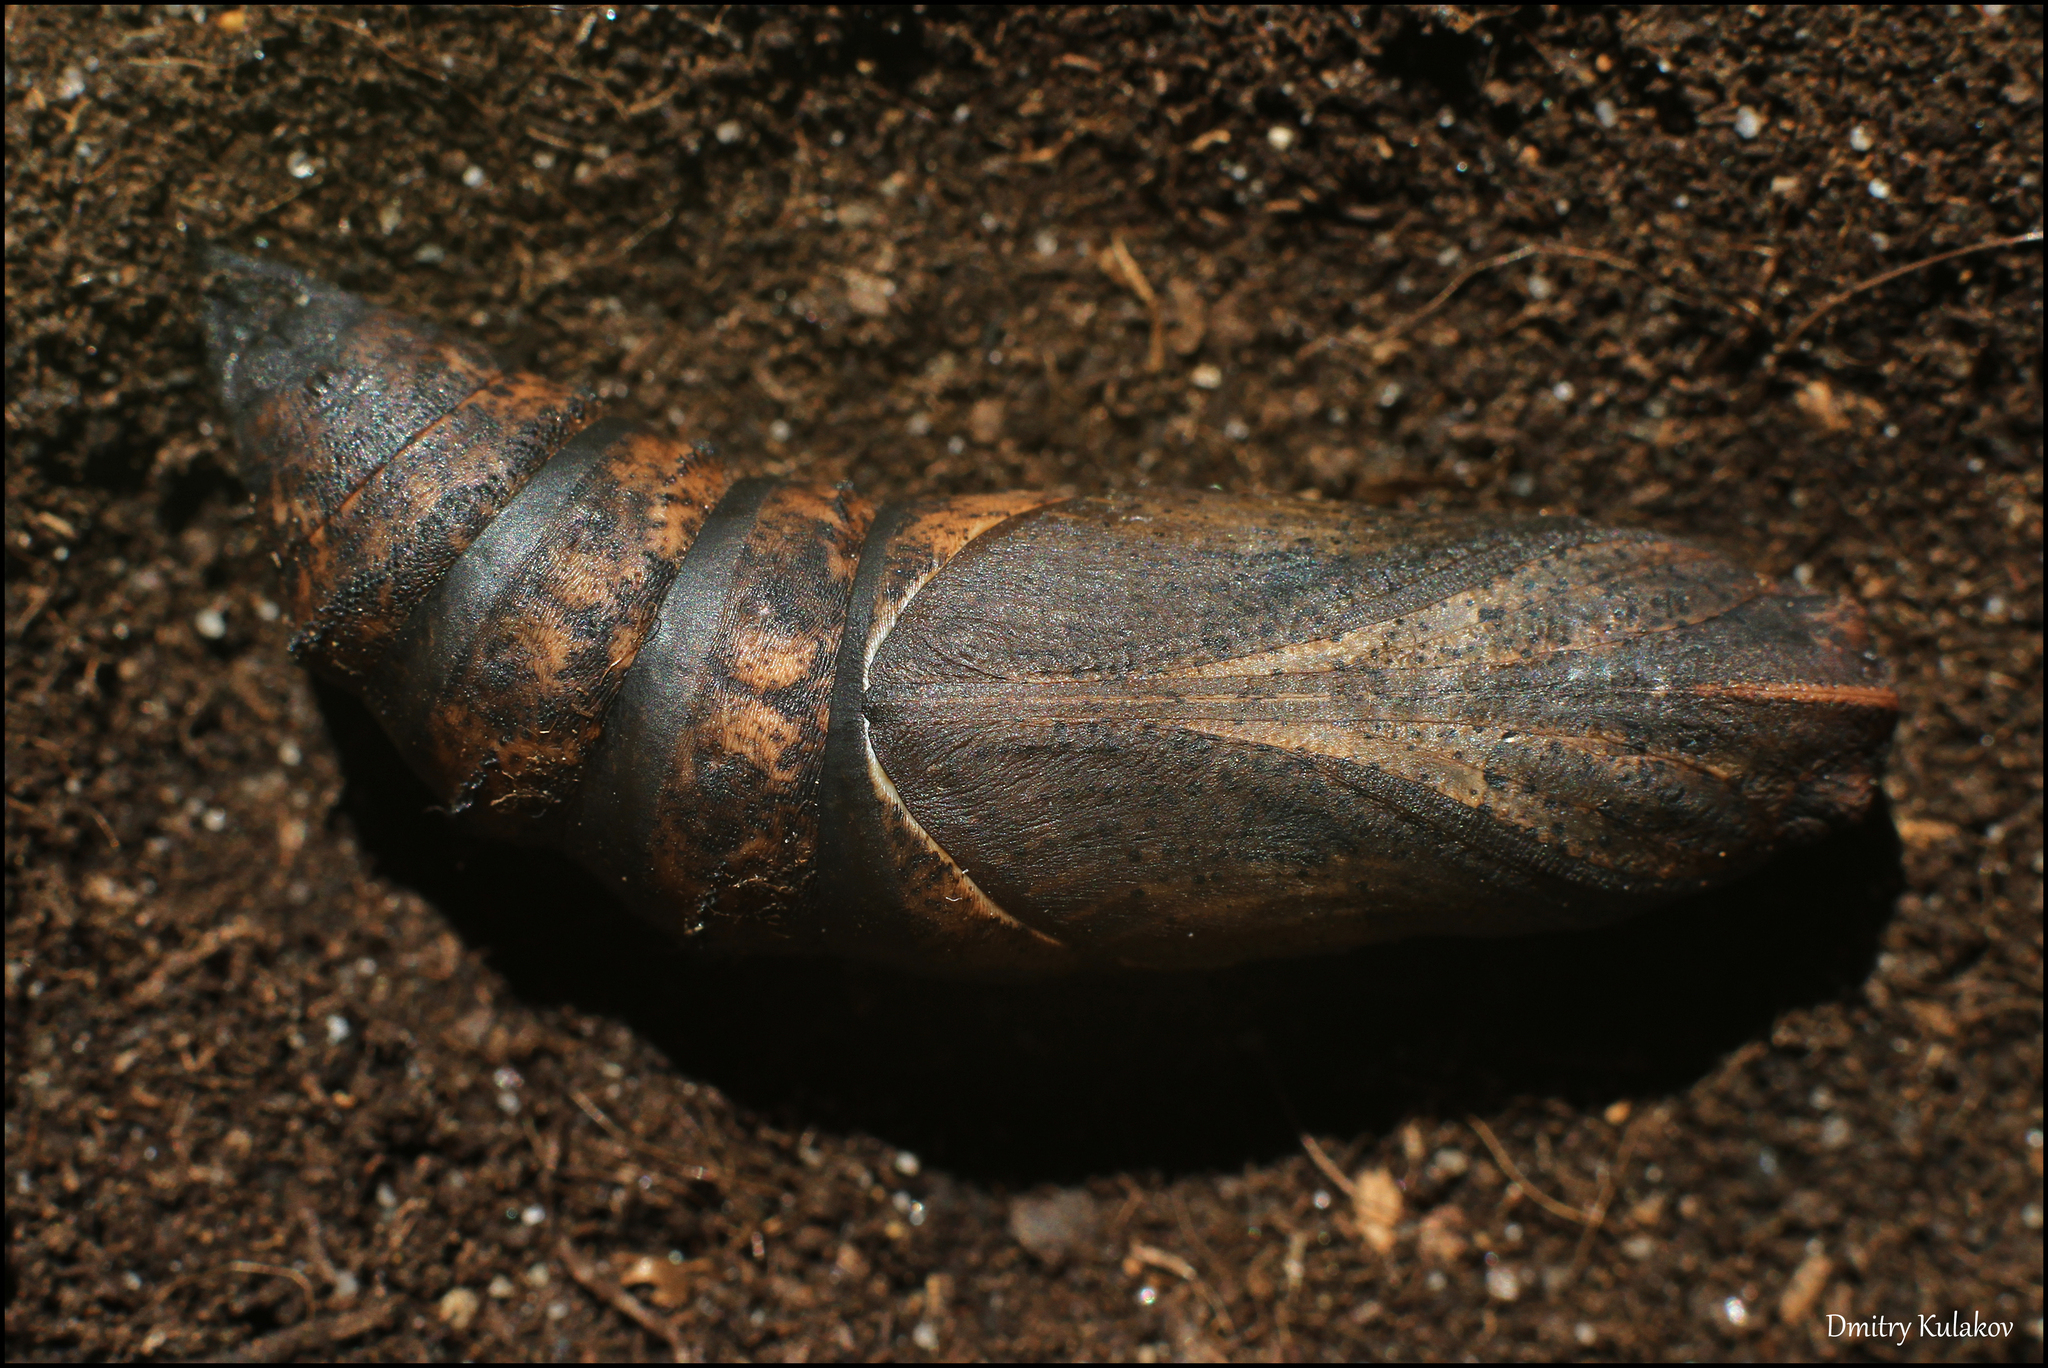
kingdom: Animalia
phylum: Arthropoda
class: Insecta
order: Lepidoptera
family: Sphingidae
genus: Deilephila
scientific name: Deilephila elpenor
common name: Elephant hawk-moth
